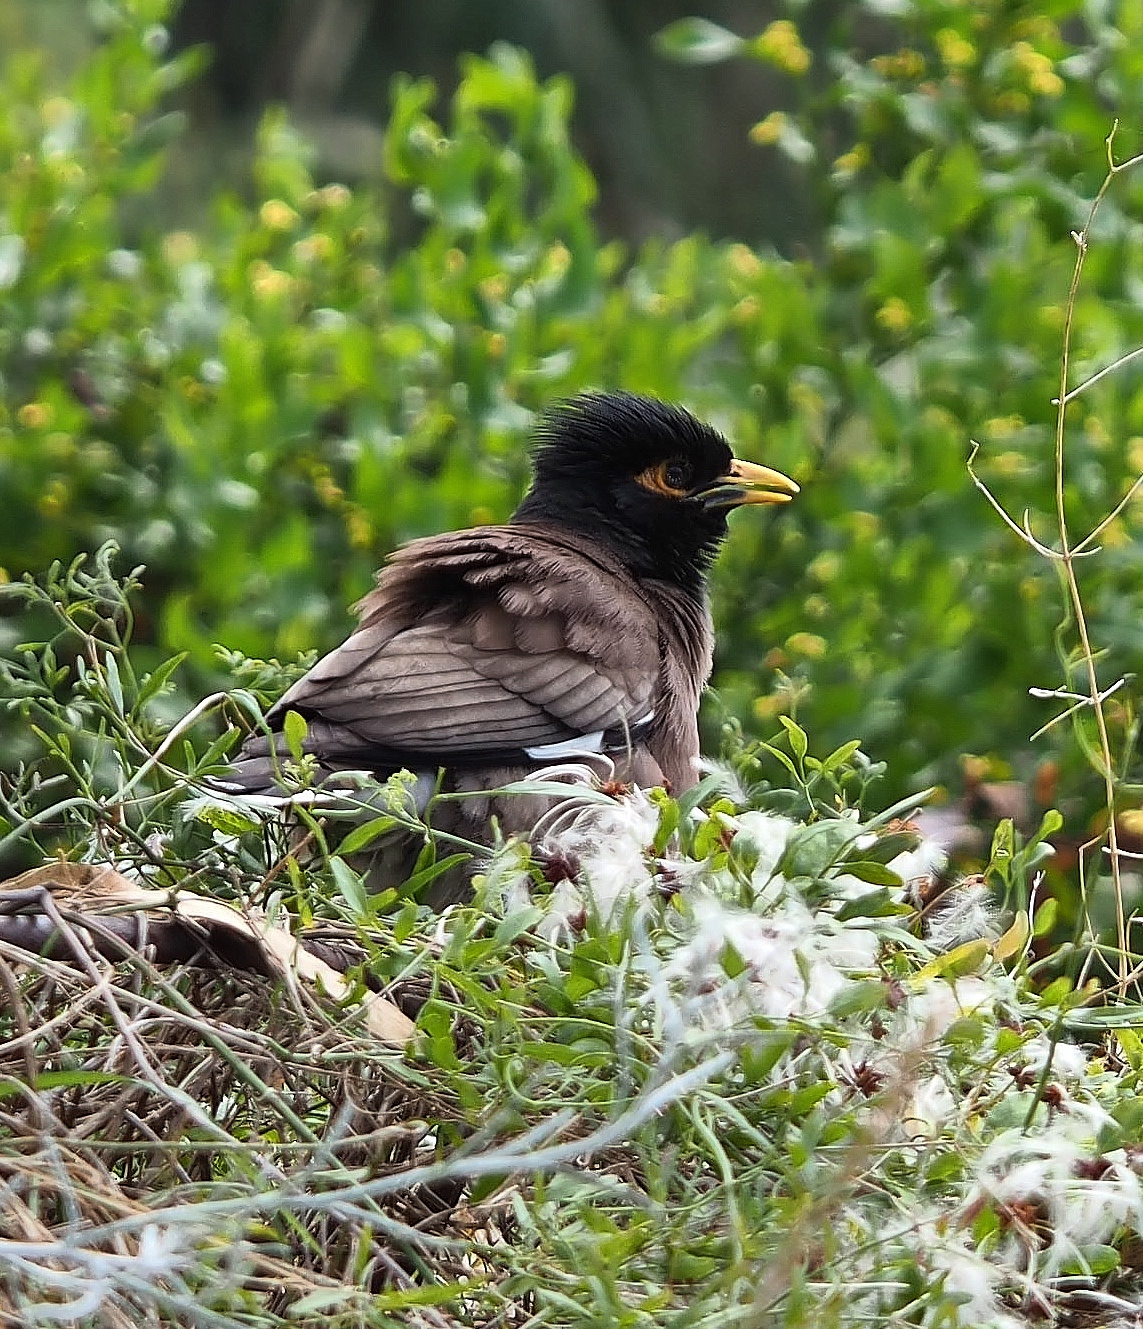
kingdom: Animalia
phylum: Chordata
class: Aves
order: Passeriformes
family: Sturnidae
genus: Acridotheres
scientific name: Acridotheres tristis
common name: Common myna
